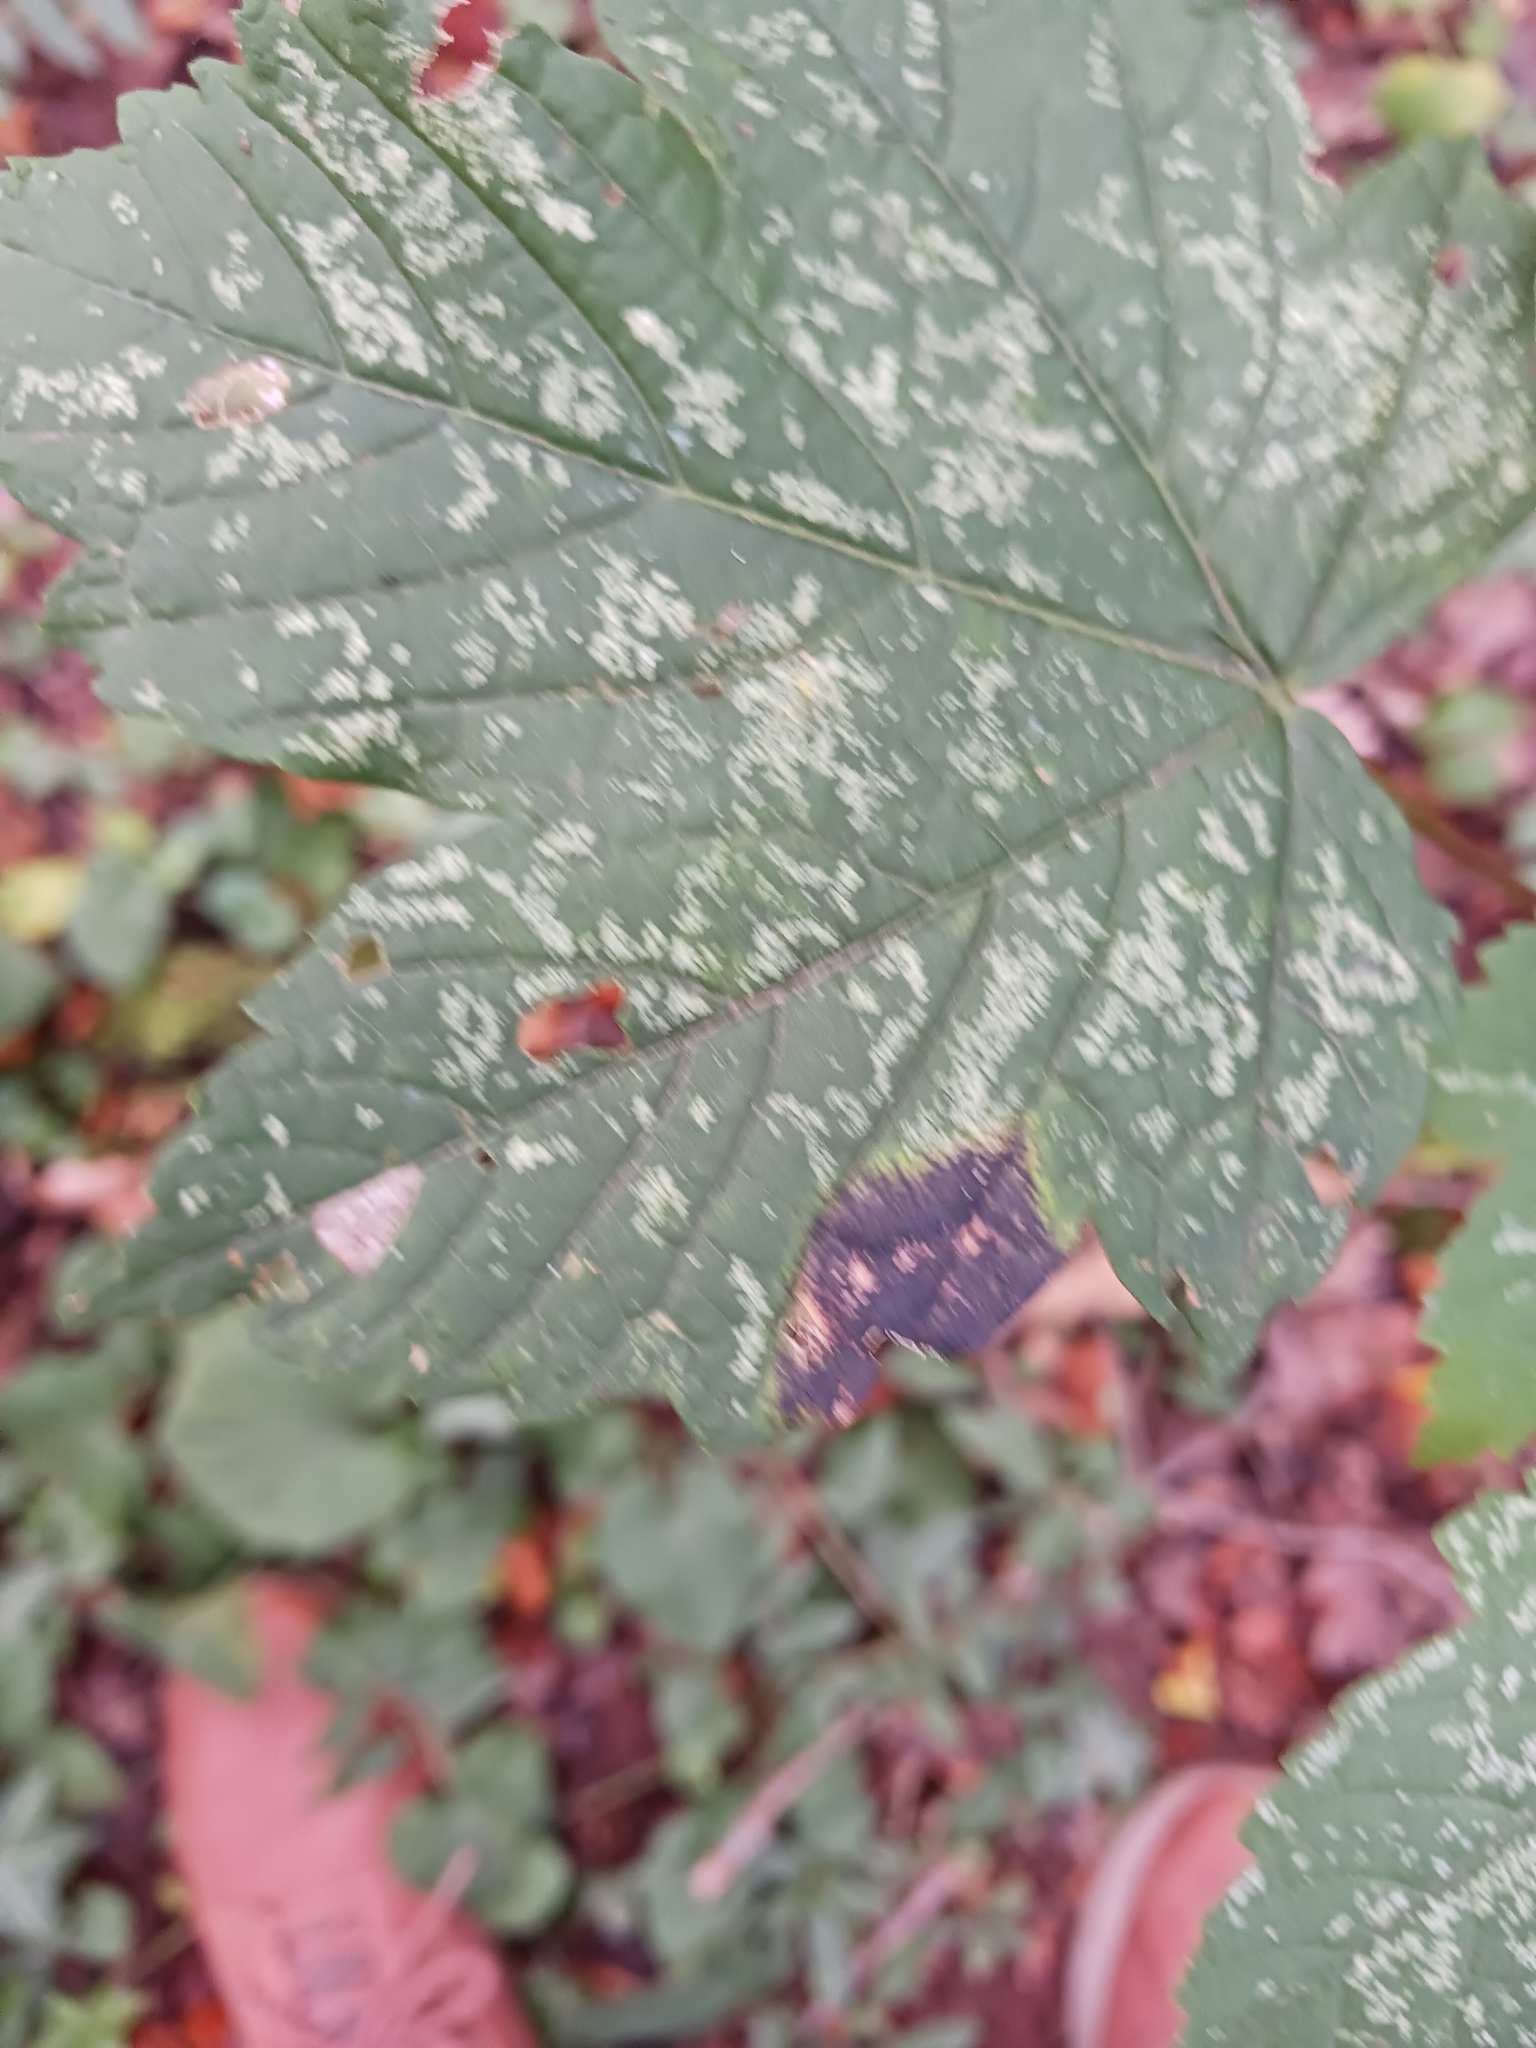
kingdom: Fungi
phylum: Ascomycota
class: Leotiomycetes
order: Rhytismatales
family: Rhytismataceae
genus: Rhytisma
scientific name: Rhytisma acerinum
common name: European tar spot
